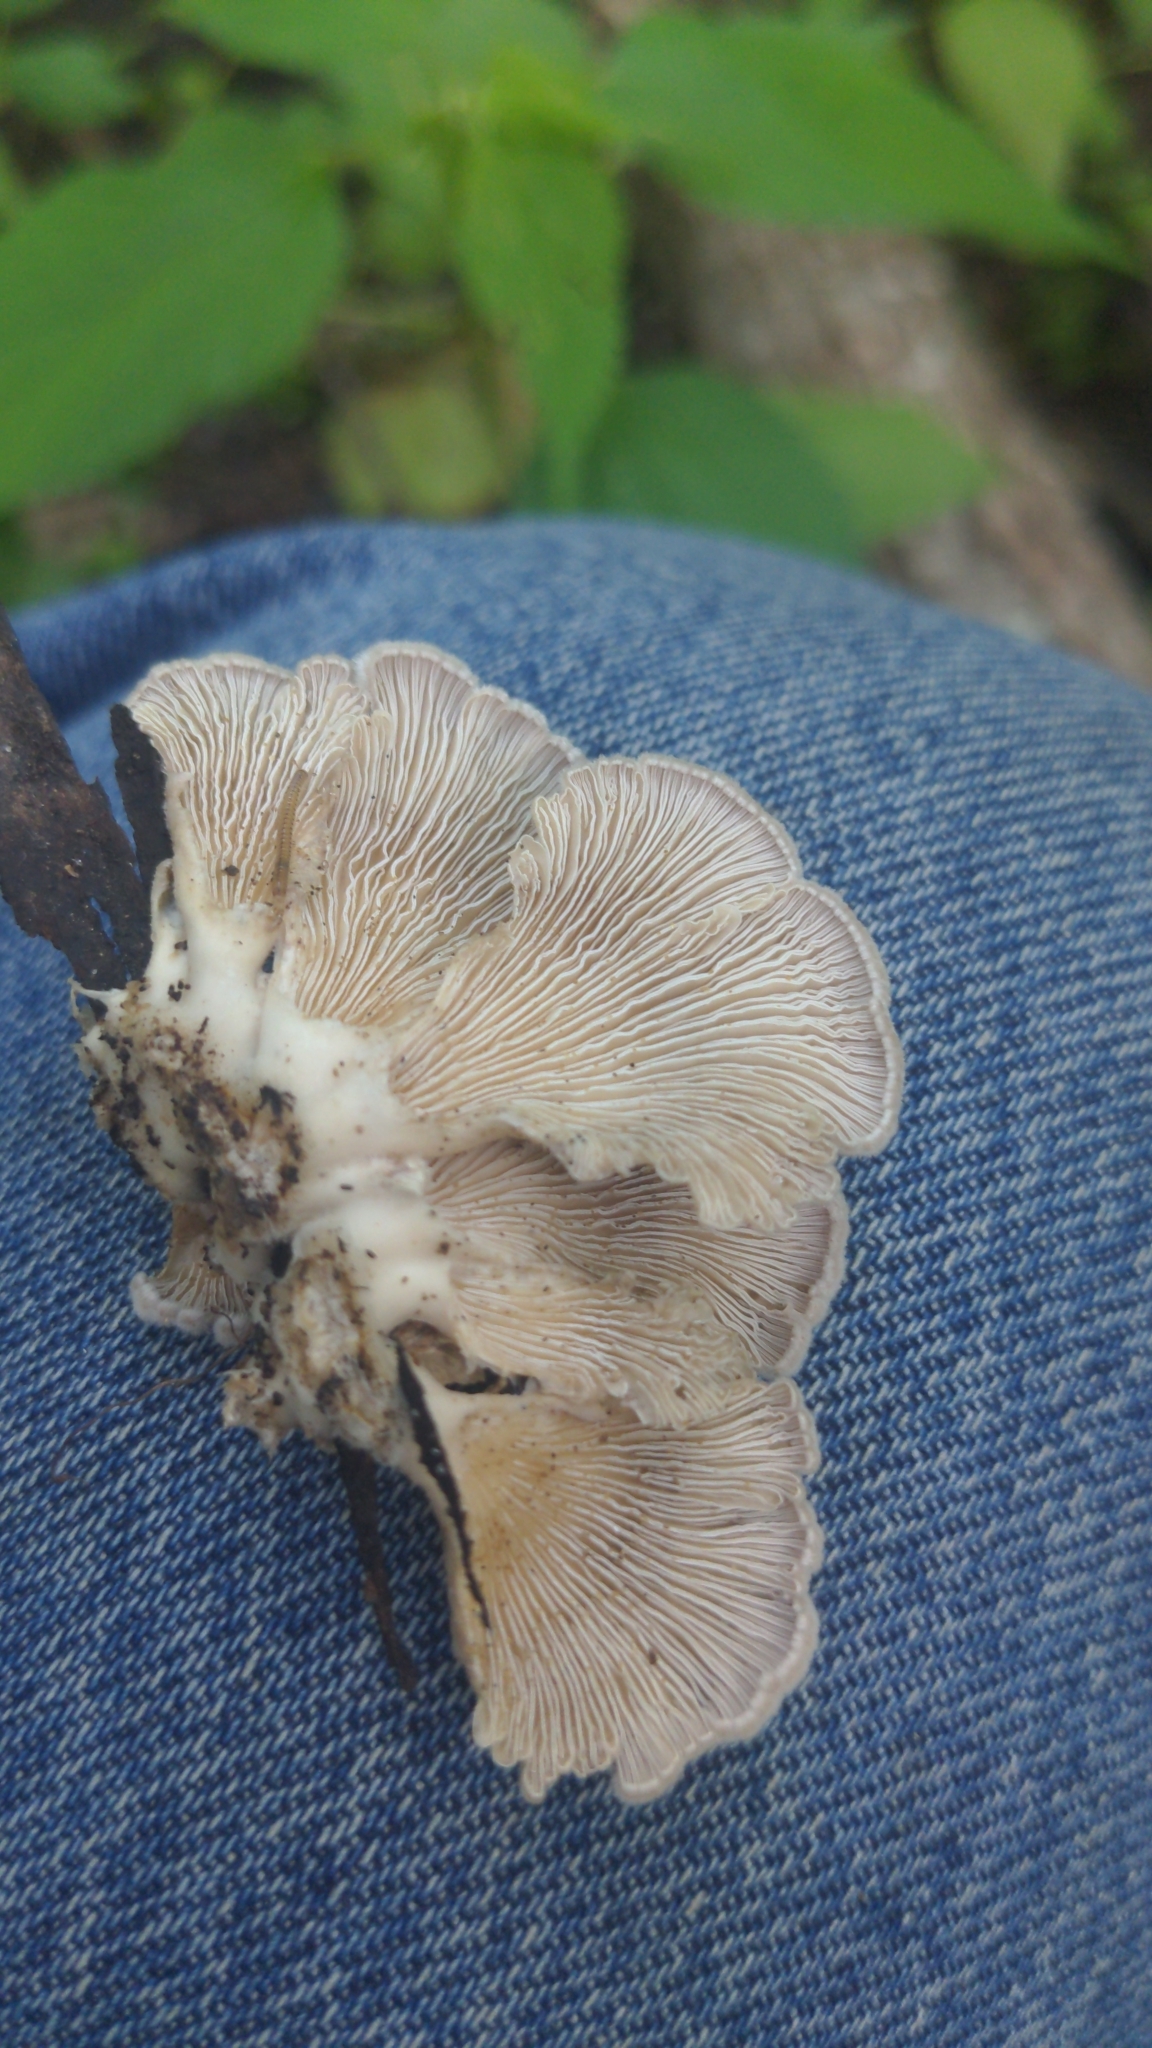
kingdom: Fungi
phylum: Basidiomycota
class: Agaricomycetes
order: Agaricales
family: Schizophyllaceae
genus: Schizophyllum
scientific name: Schizophyllum commune
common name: Common porecrust
